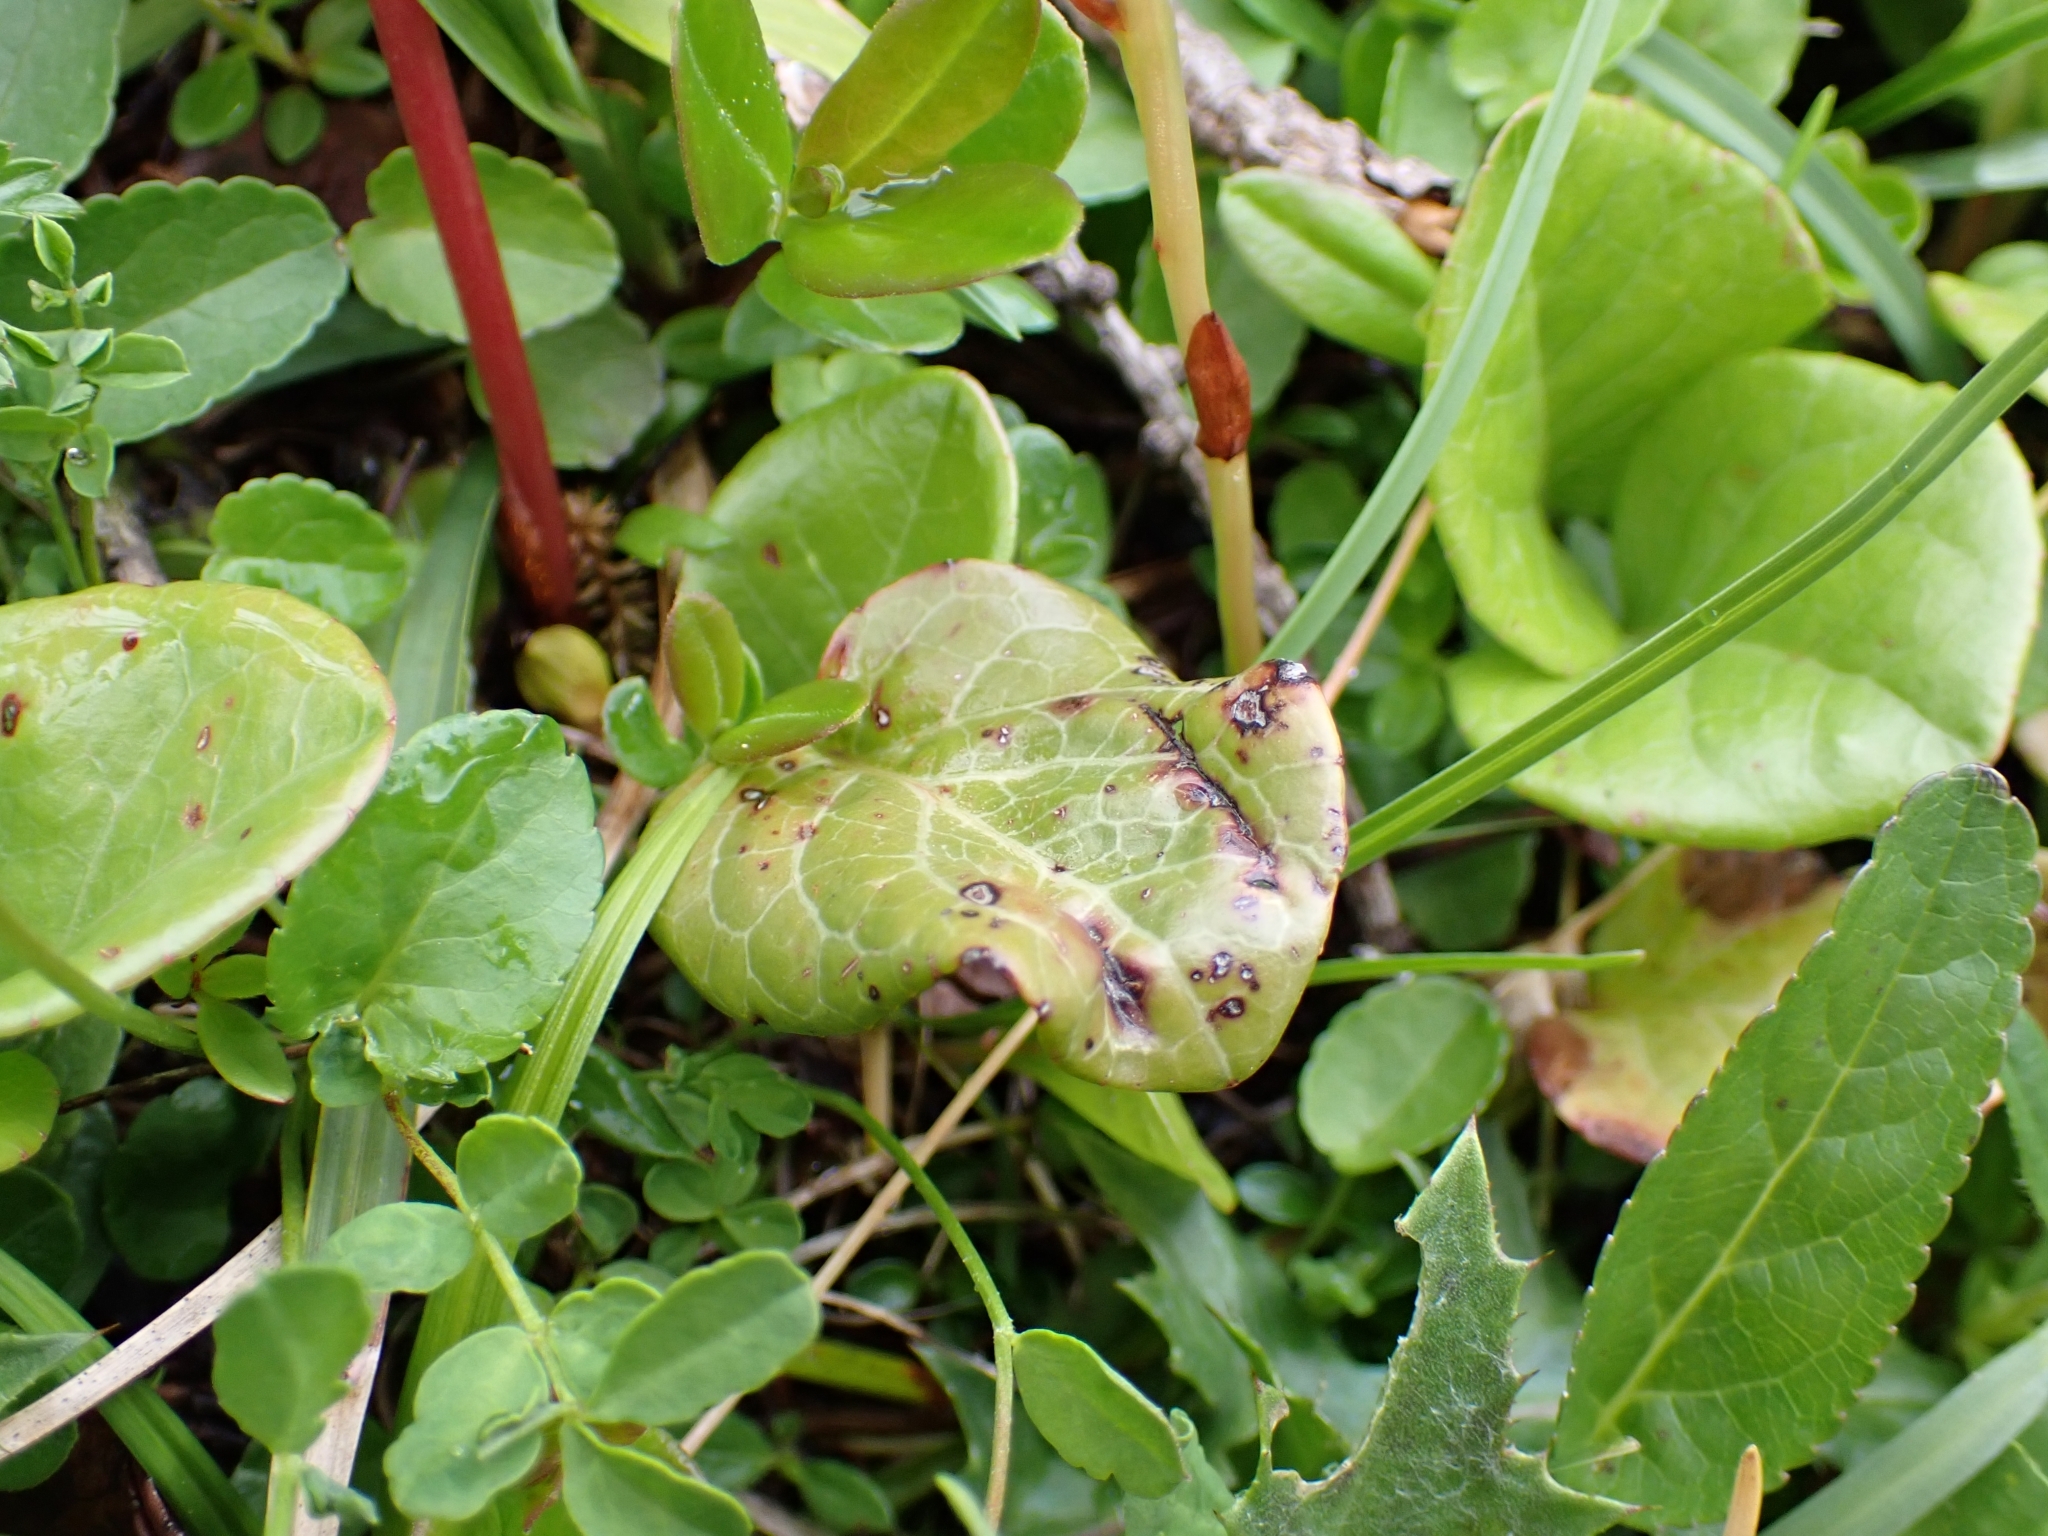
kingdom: Plantae
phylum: Tracheophyta
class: Magnoliopsida
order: Ericales
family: Ericaceae
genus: Pyrola
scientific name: Pyrola rotundifolia
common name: Round-leaved wintergreen
